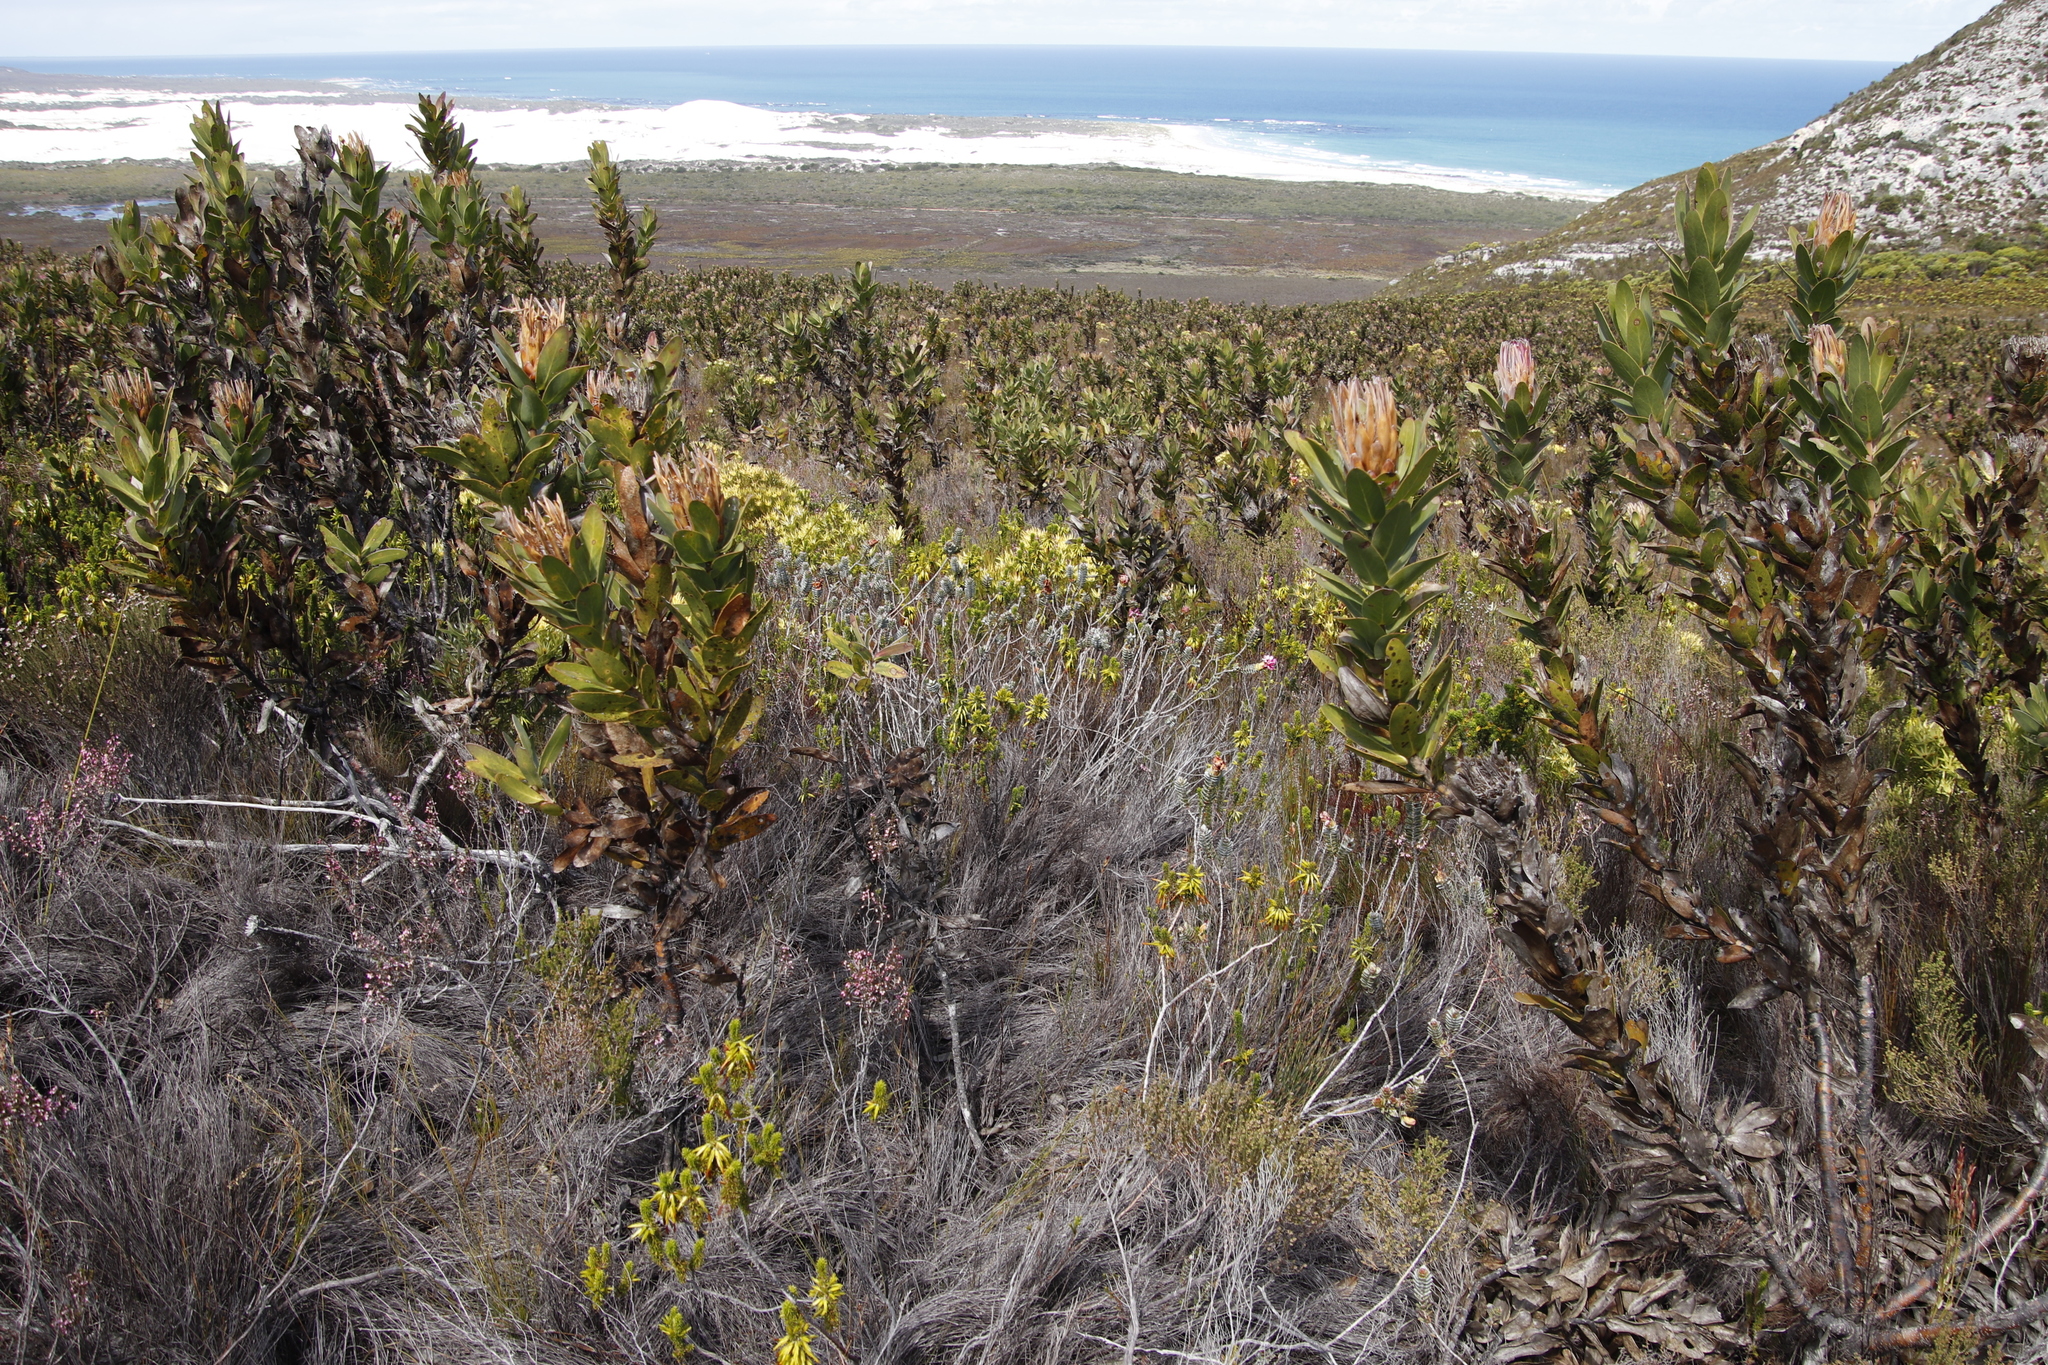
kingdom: Plantae
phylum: Tracheophyta
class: Magnoliopsida
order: Ericales
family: Ericaceae
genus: Erica
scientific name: Erica coccinea
